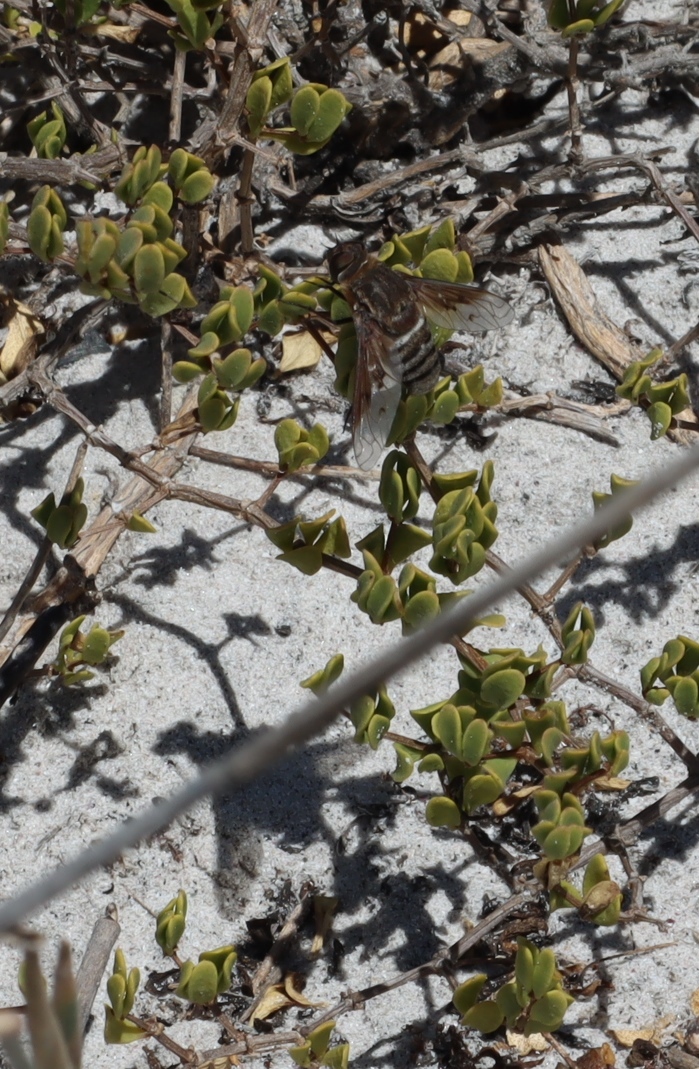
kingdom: Plantae
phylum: Tracheophyta
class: Magnoliopsida
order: Zygophyllales
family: Zygophyllaceae
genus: Roepera
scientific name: Roepera flexuosa
